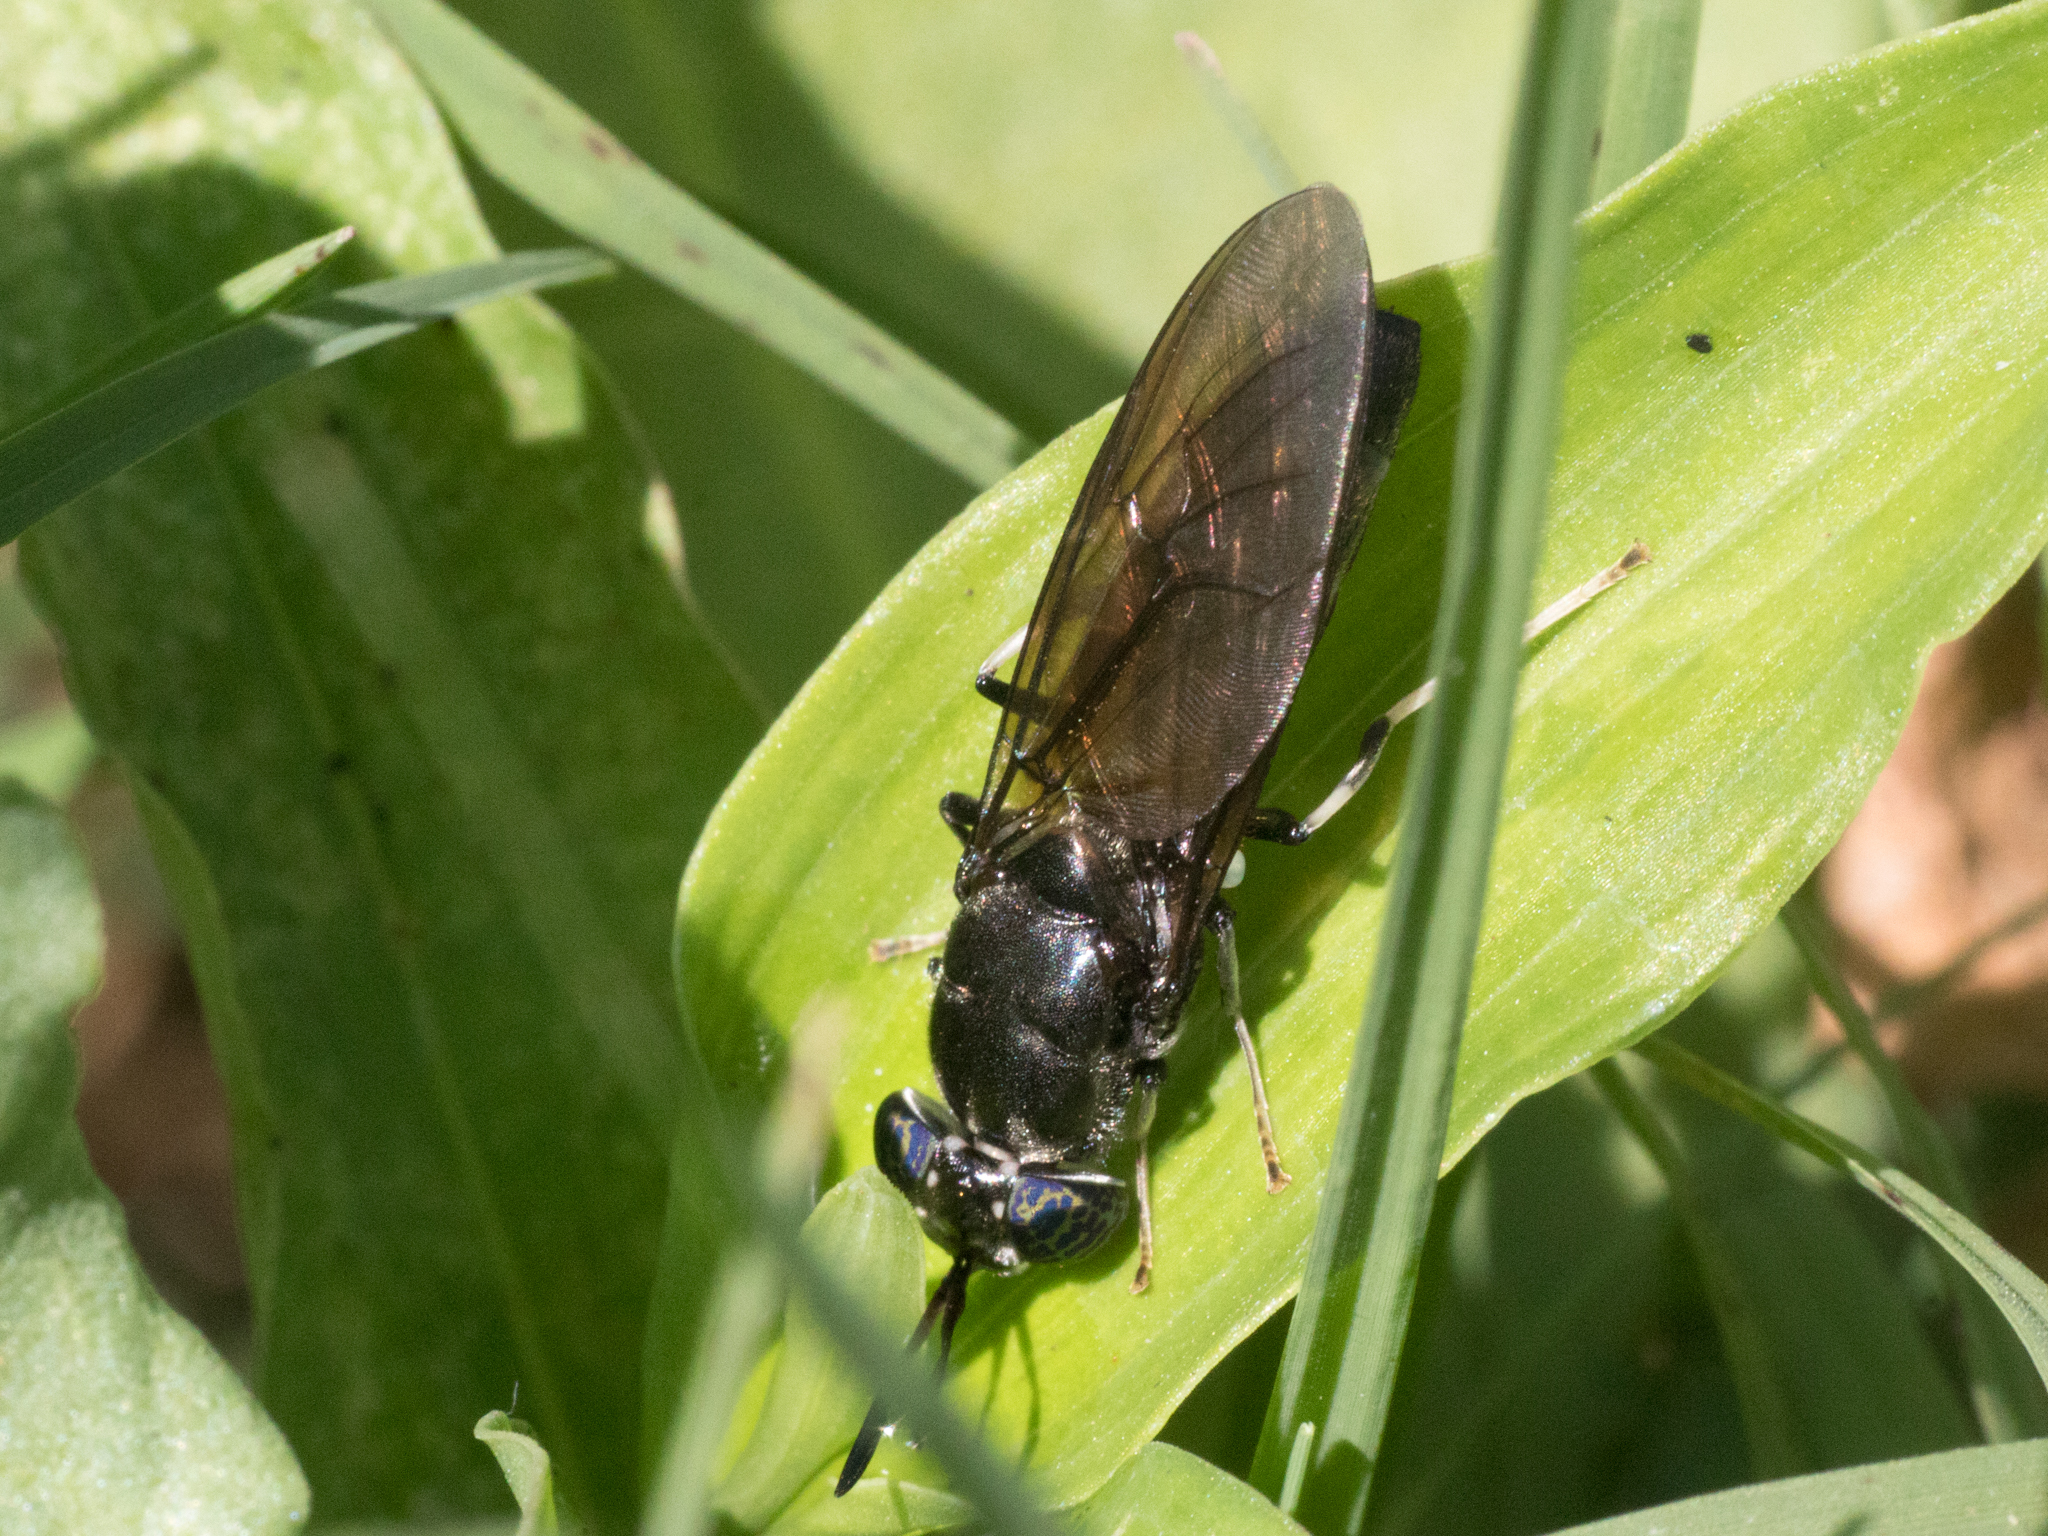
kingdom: Animalia
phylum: Arthropoda
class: Insecta
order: Diptera
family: Stratiomyidae
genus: Hermetia
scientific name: Hermetia illucens
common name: Black soldier fly
